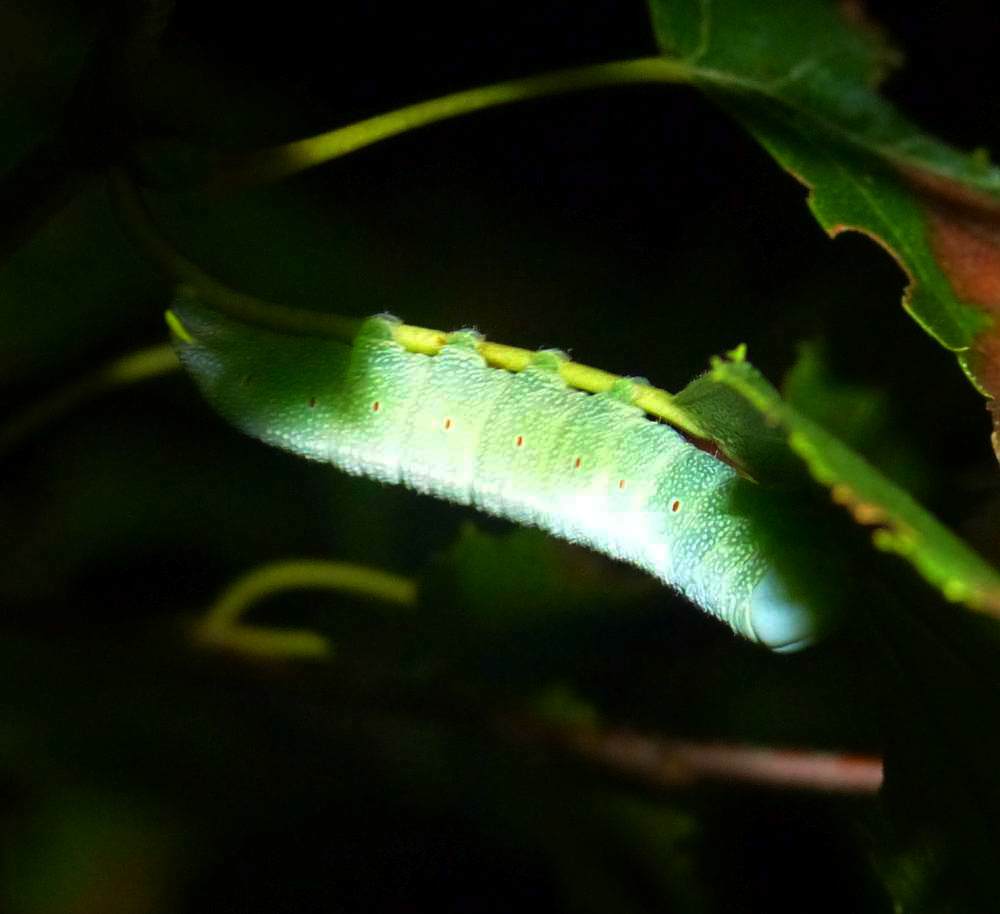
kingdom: Animalia
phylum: Arthropoda
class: Insecta
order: Lepidoptera
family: Notodontidae
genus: Nadata
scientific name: Nadata gibbosa
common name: White-dotted prominent
